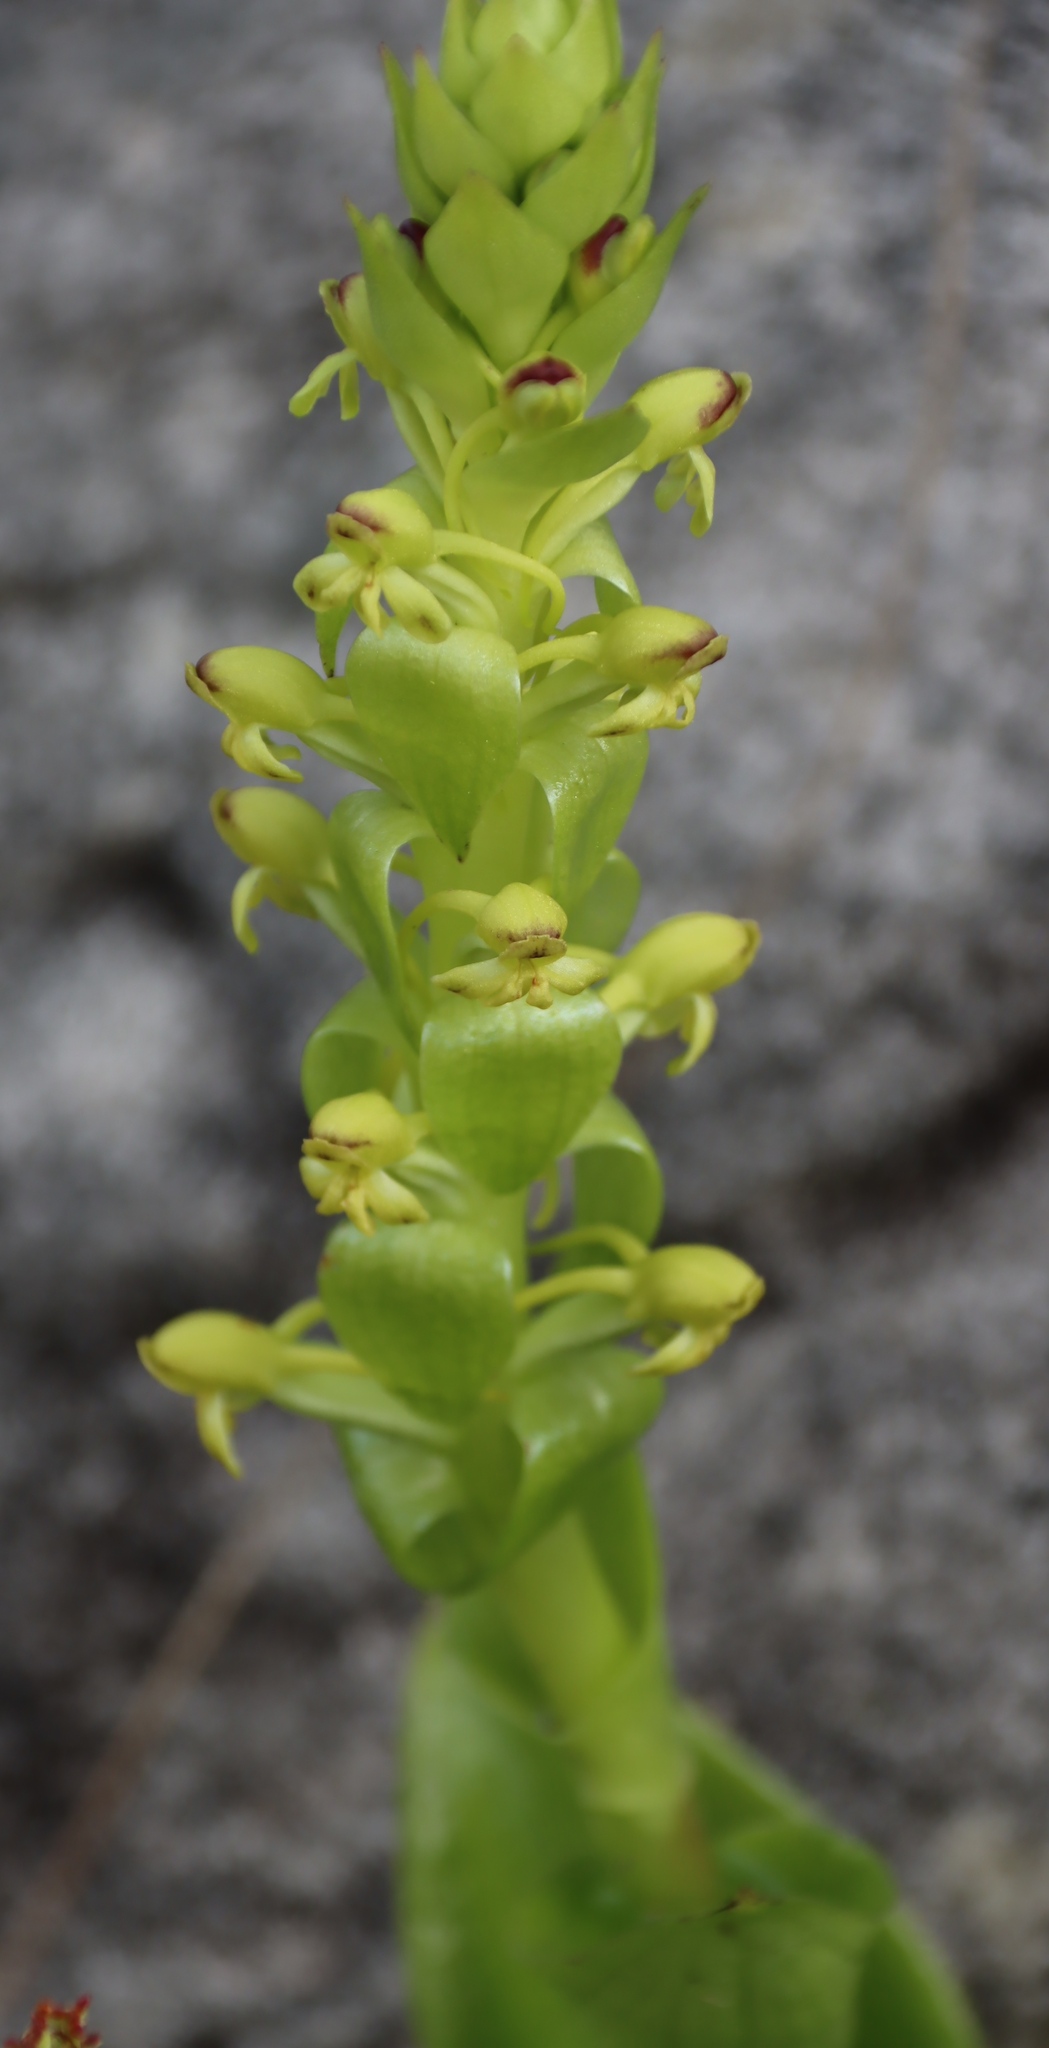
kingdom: Plantae
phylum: Tracheophyta
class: Liliopsida
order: Asparagales
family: Orchidaceae
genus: Satyrium
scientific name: Satyrium odorum
